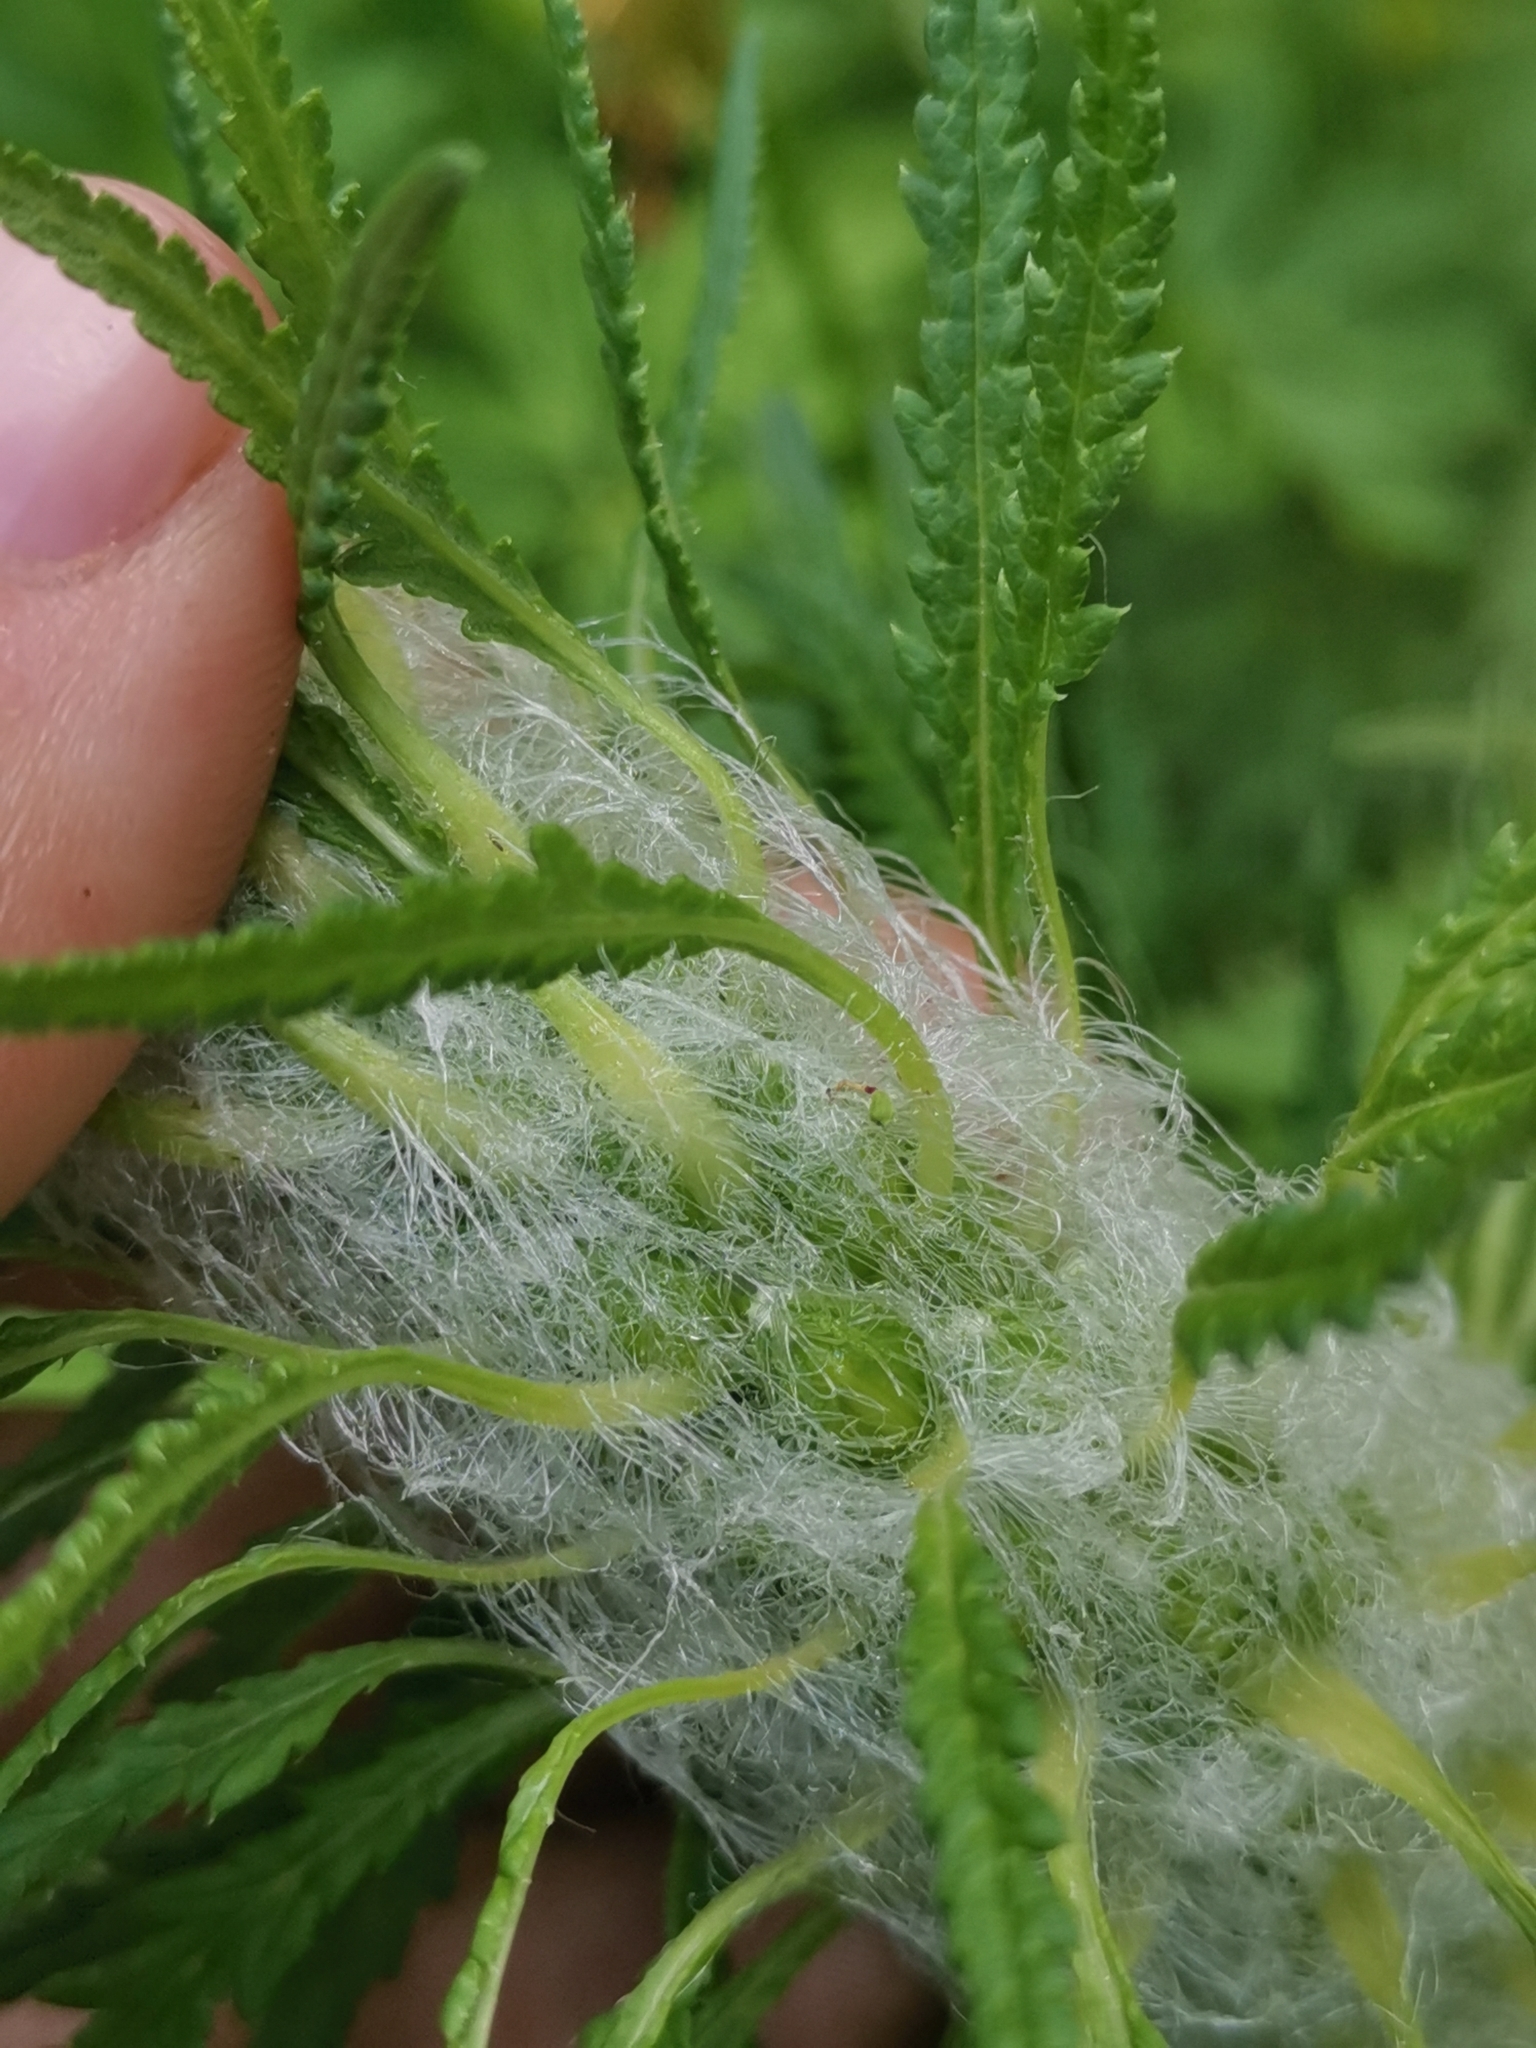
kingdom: Plantae
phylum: Tracheophyta
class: Magnoliopsida
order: Lamiales
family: Orobanchaceae
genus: Pedicularis
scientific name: Pedicularis hacquetii
